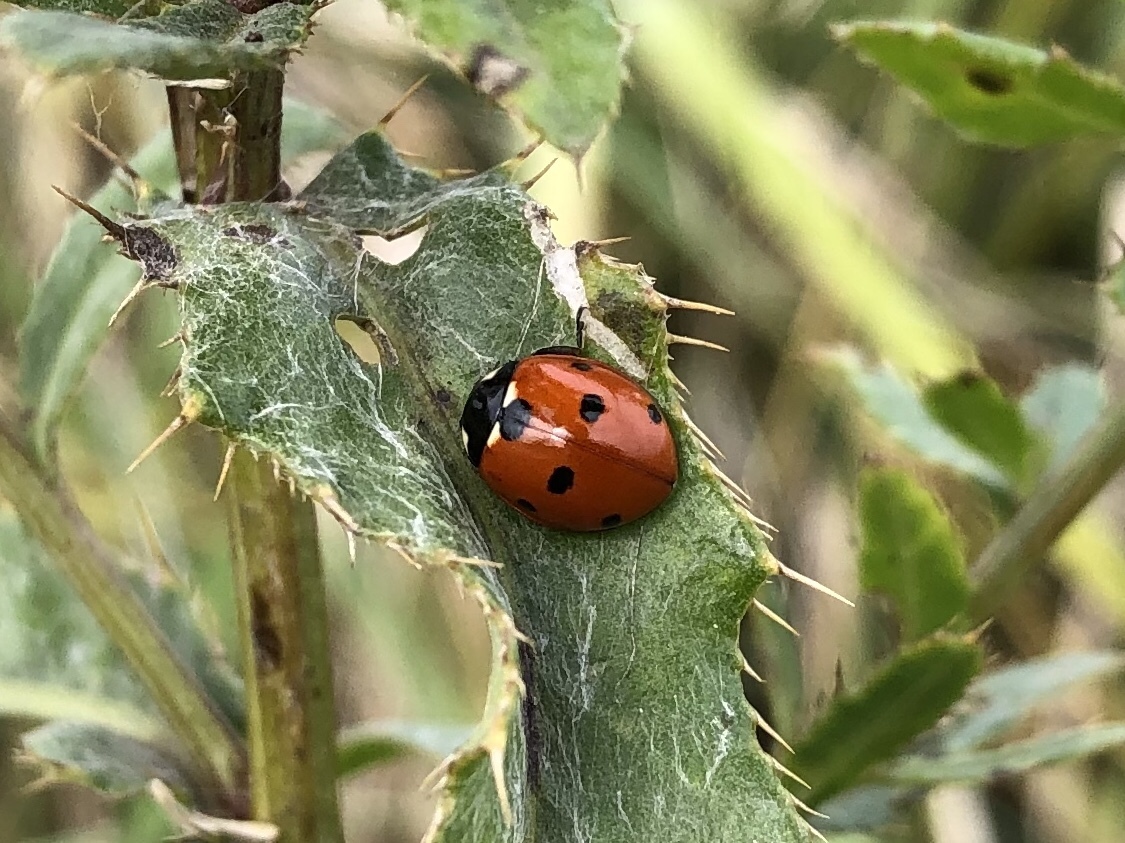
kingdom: Animalia
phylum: Arthropoda
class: Insecta
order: Coleoptera
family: Coccinellidae
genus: Coccinella
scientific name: Coccinella septempunctata
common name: Sevenspotted lady beetle
